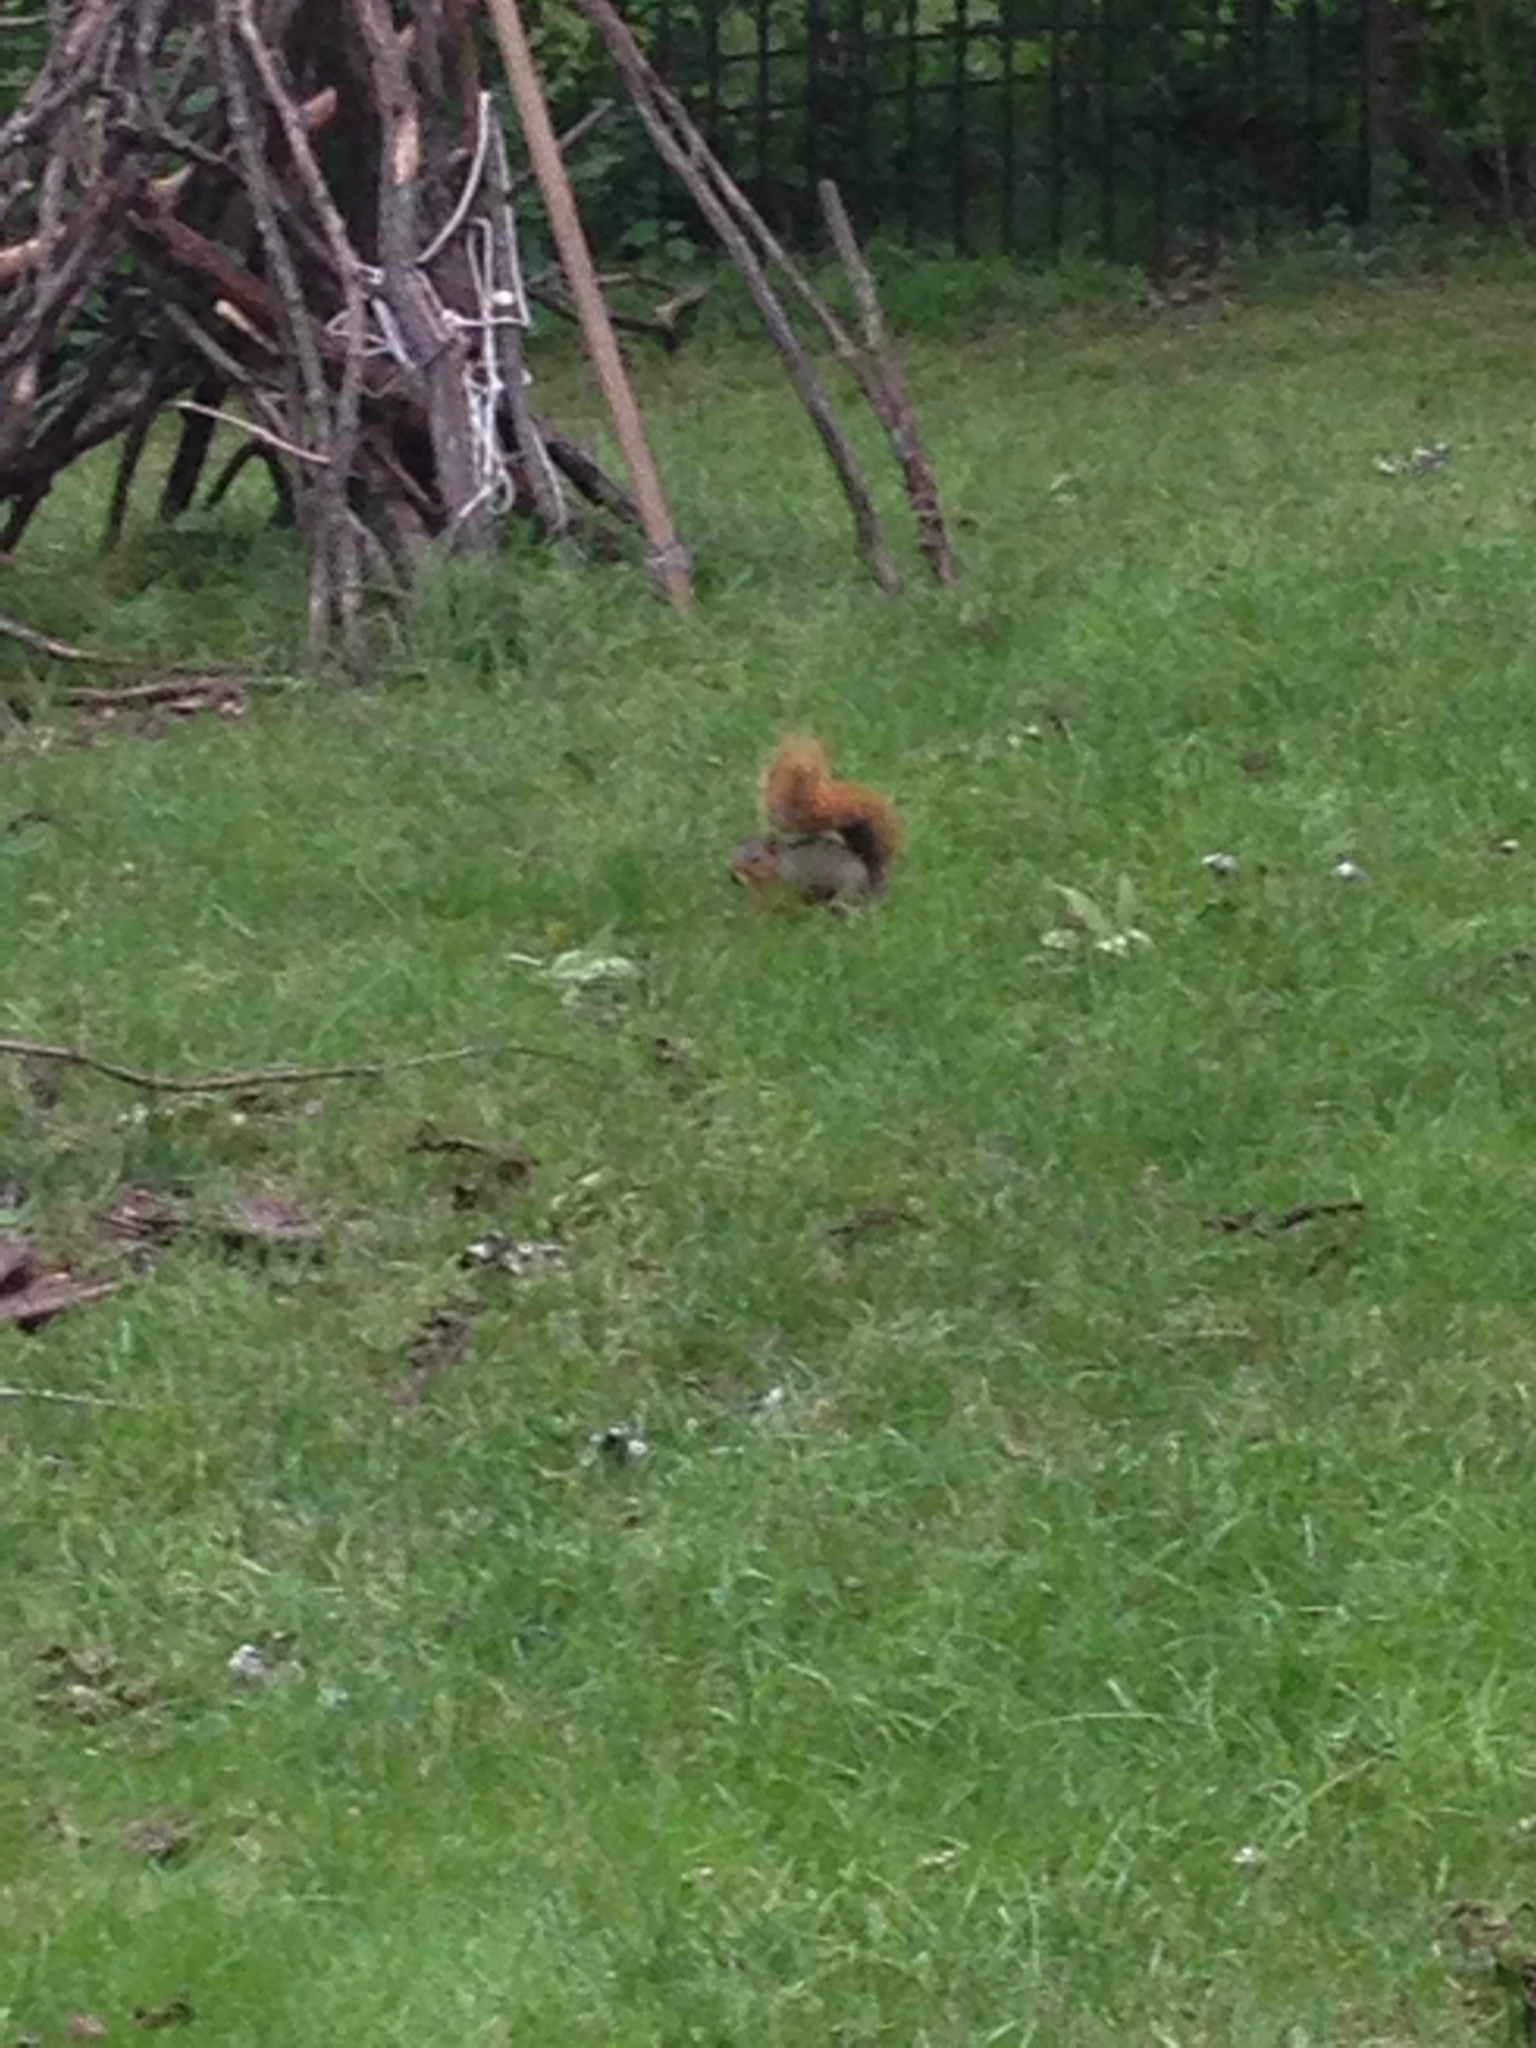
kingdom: Animalia
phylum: Chordata
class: Mammalia
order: Rodentia
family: Sciuridae
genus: Sciurus
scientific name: Sciurus niger
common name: Fox squirrel
